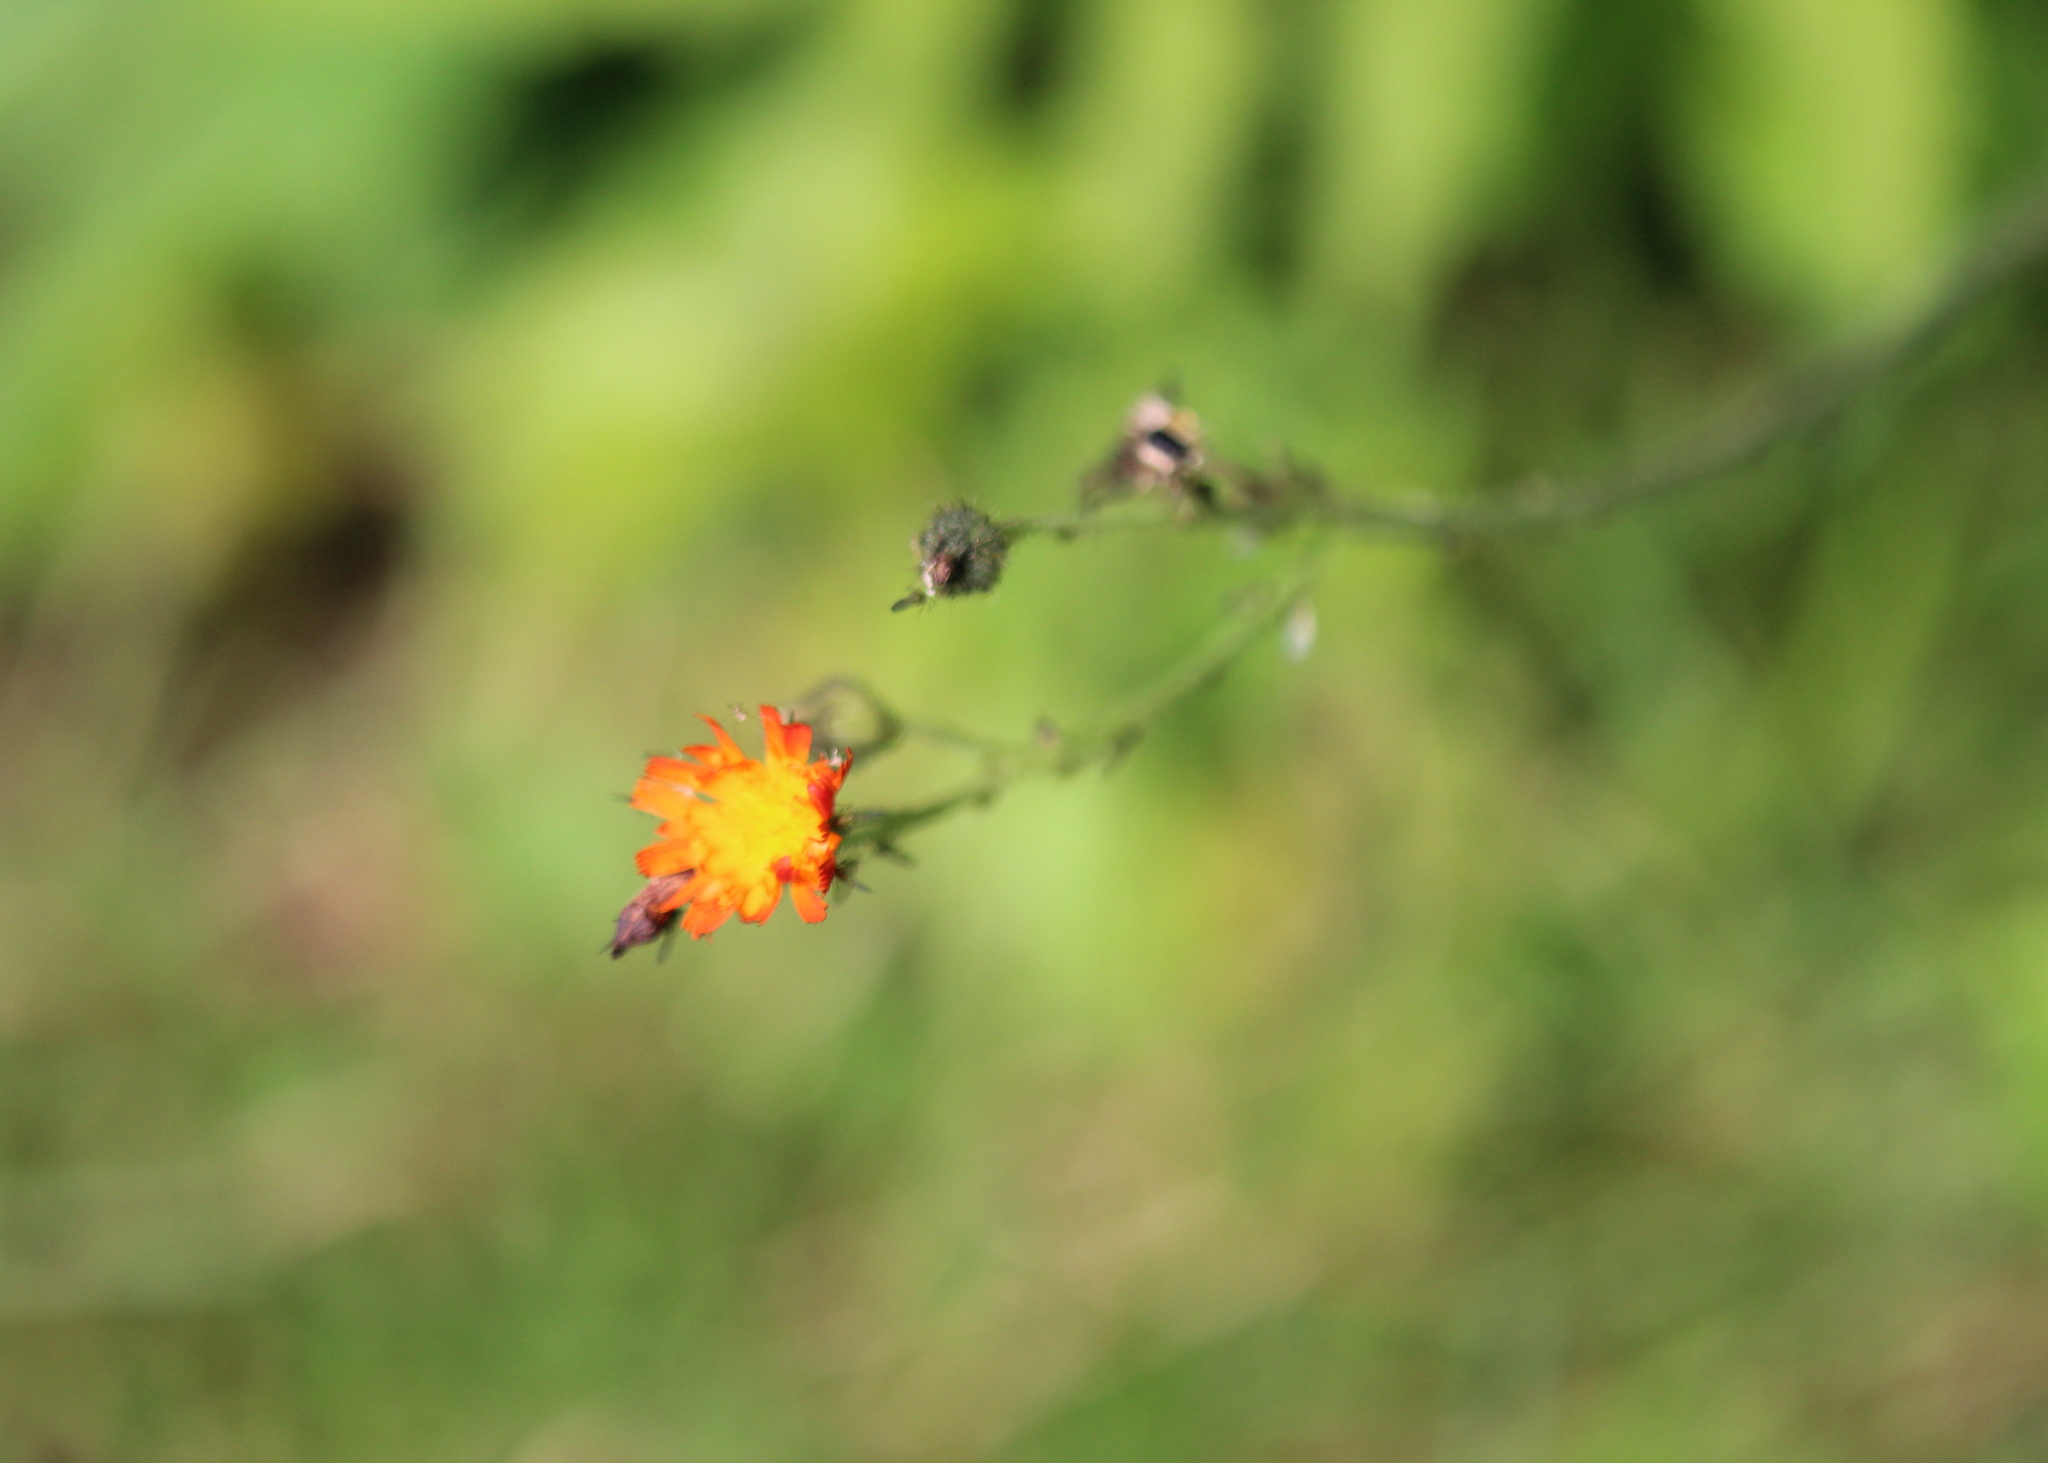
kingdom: Plantae
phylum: Tracheophyta
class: Magnoliopsida
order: Asterales
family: Asteraceae
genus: Pilosella
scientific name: Pilosella aurantiaca
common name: Fox-and-cubs
